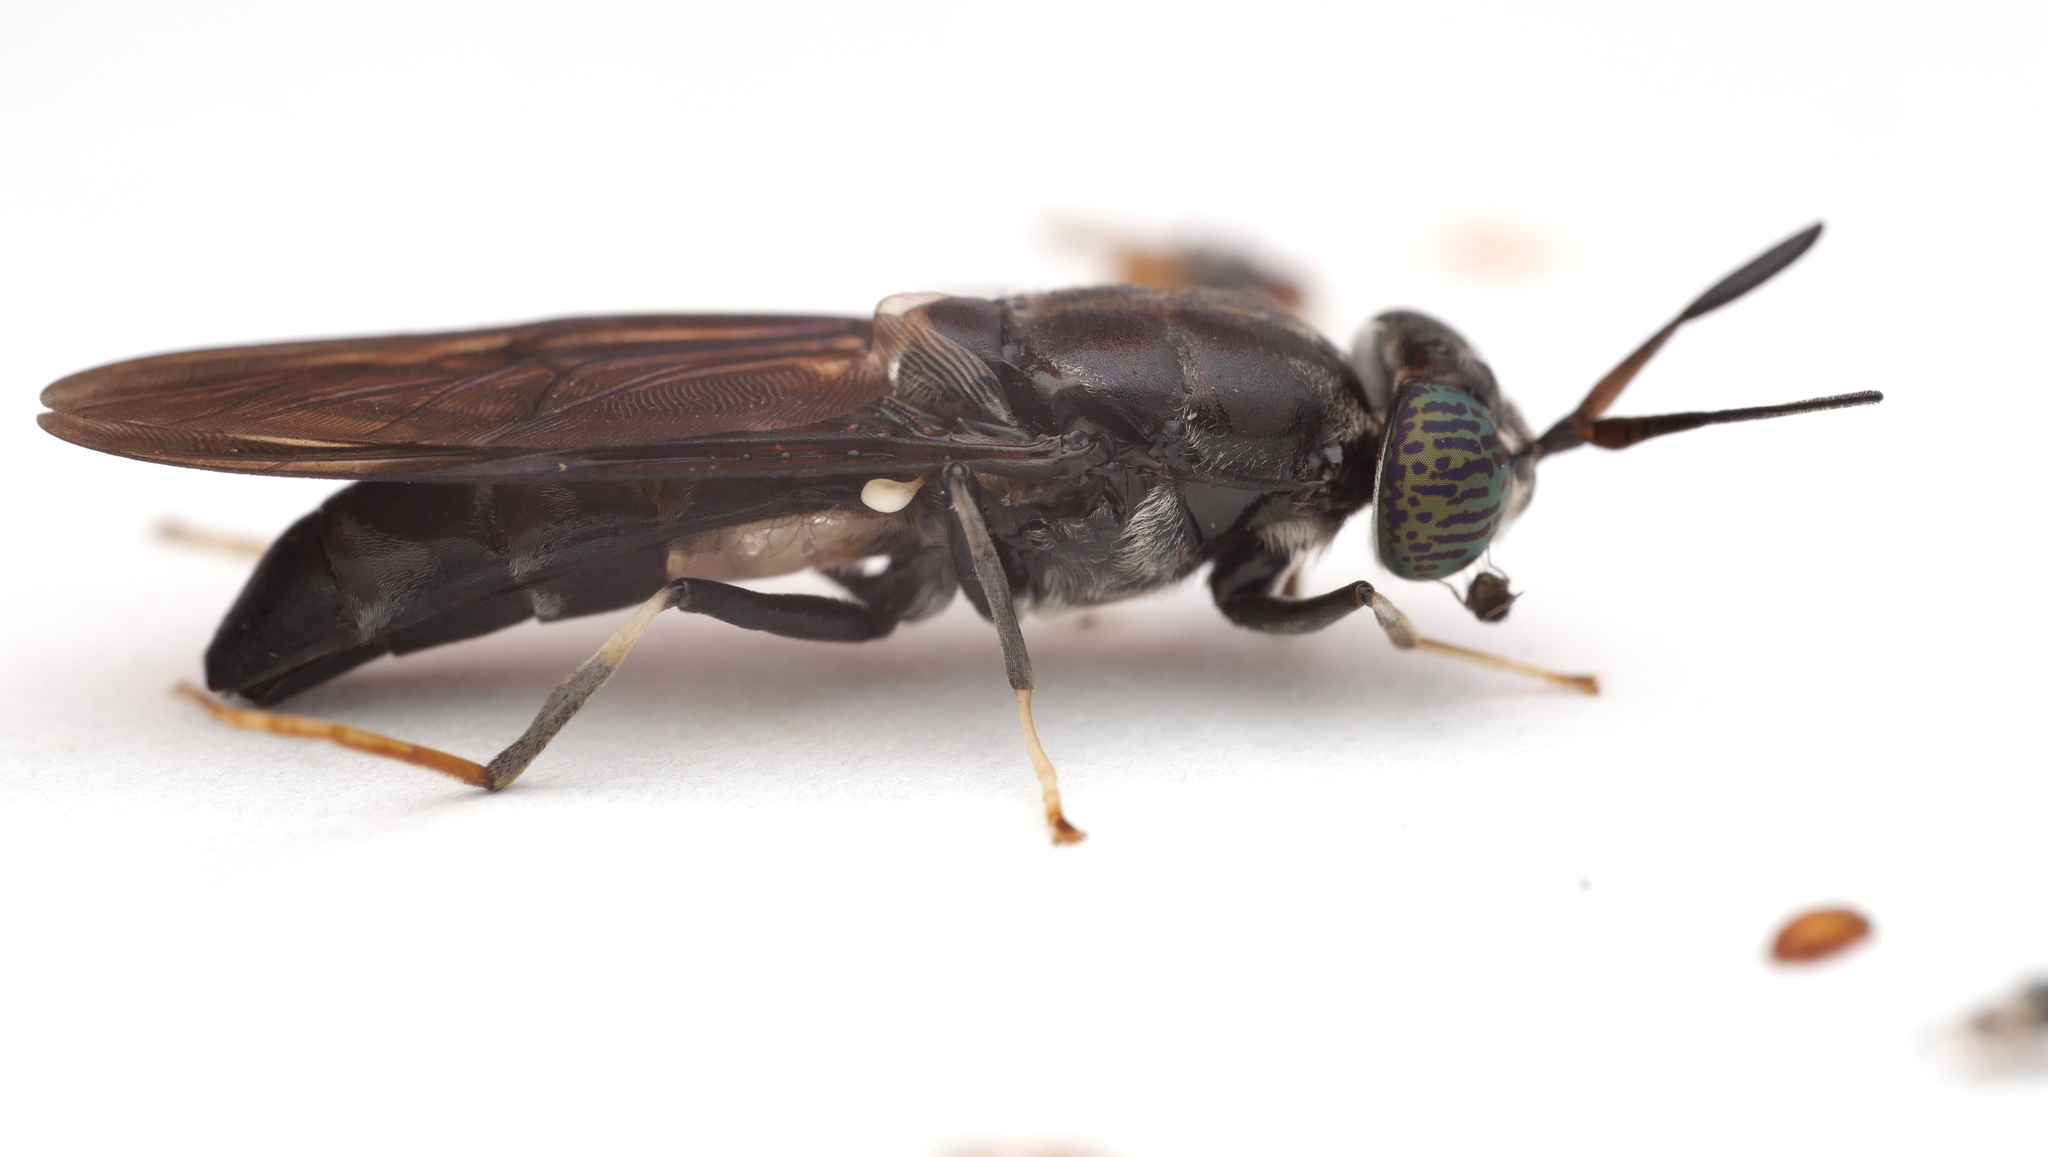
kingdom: Animalia
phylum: Arthropoda
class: Insecta
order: Diptera
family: Stratiomyidae
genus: Hermetia
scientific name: Hermetia illucens
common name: Black soldier fly
